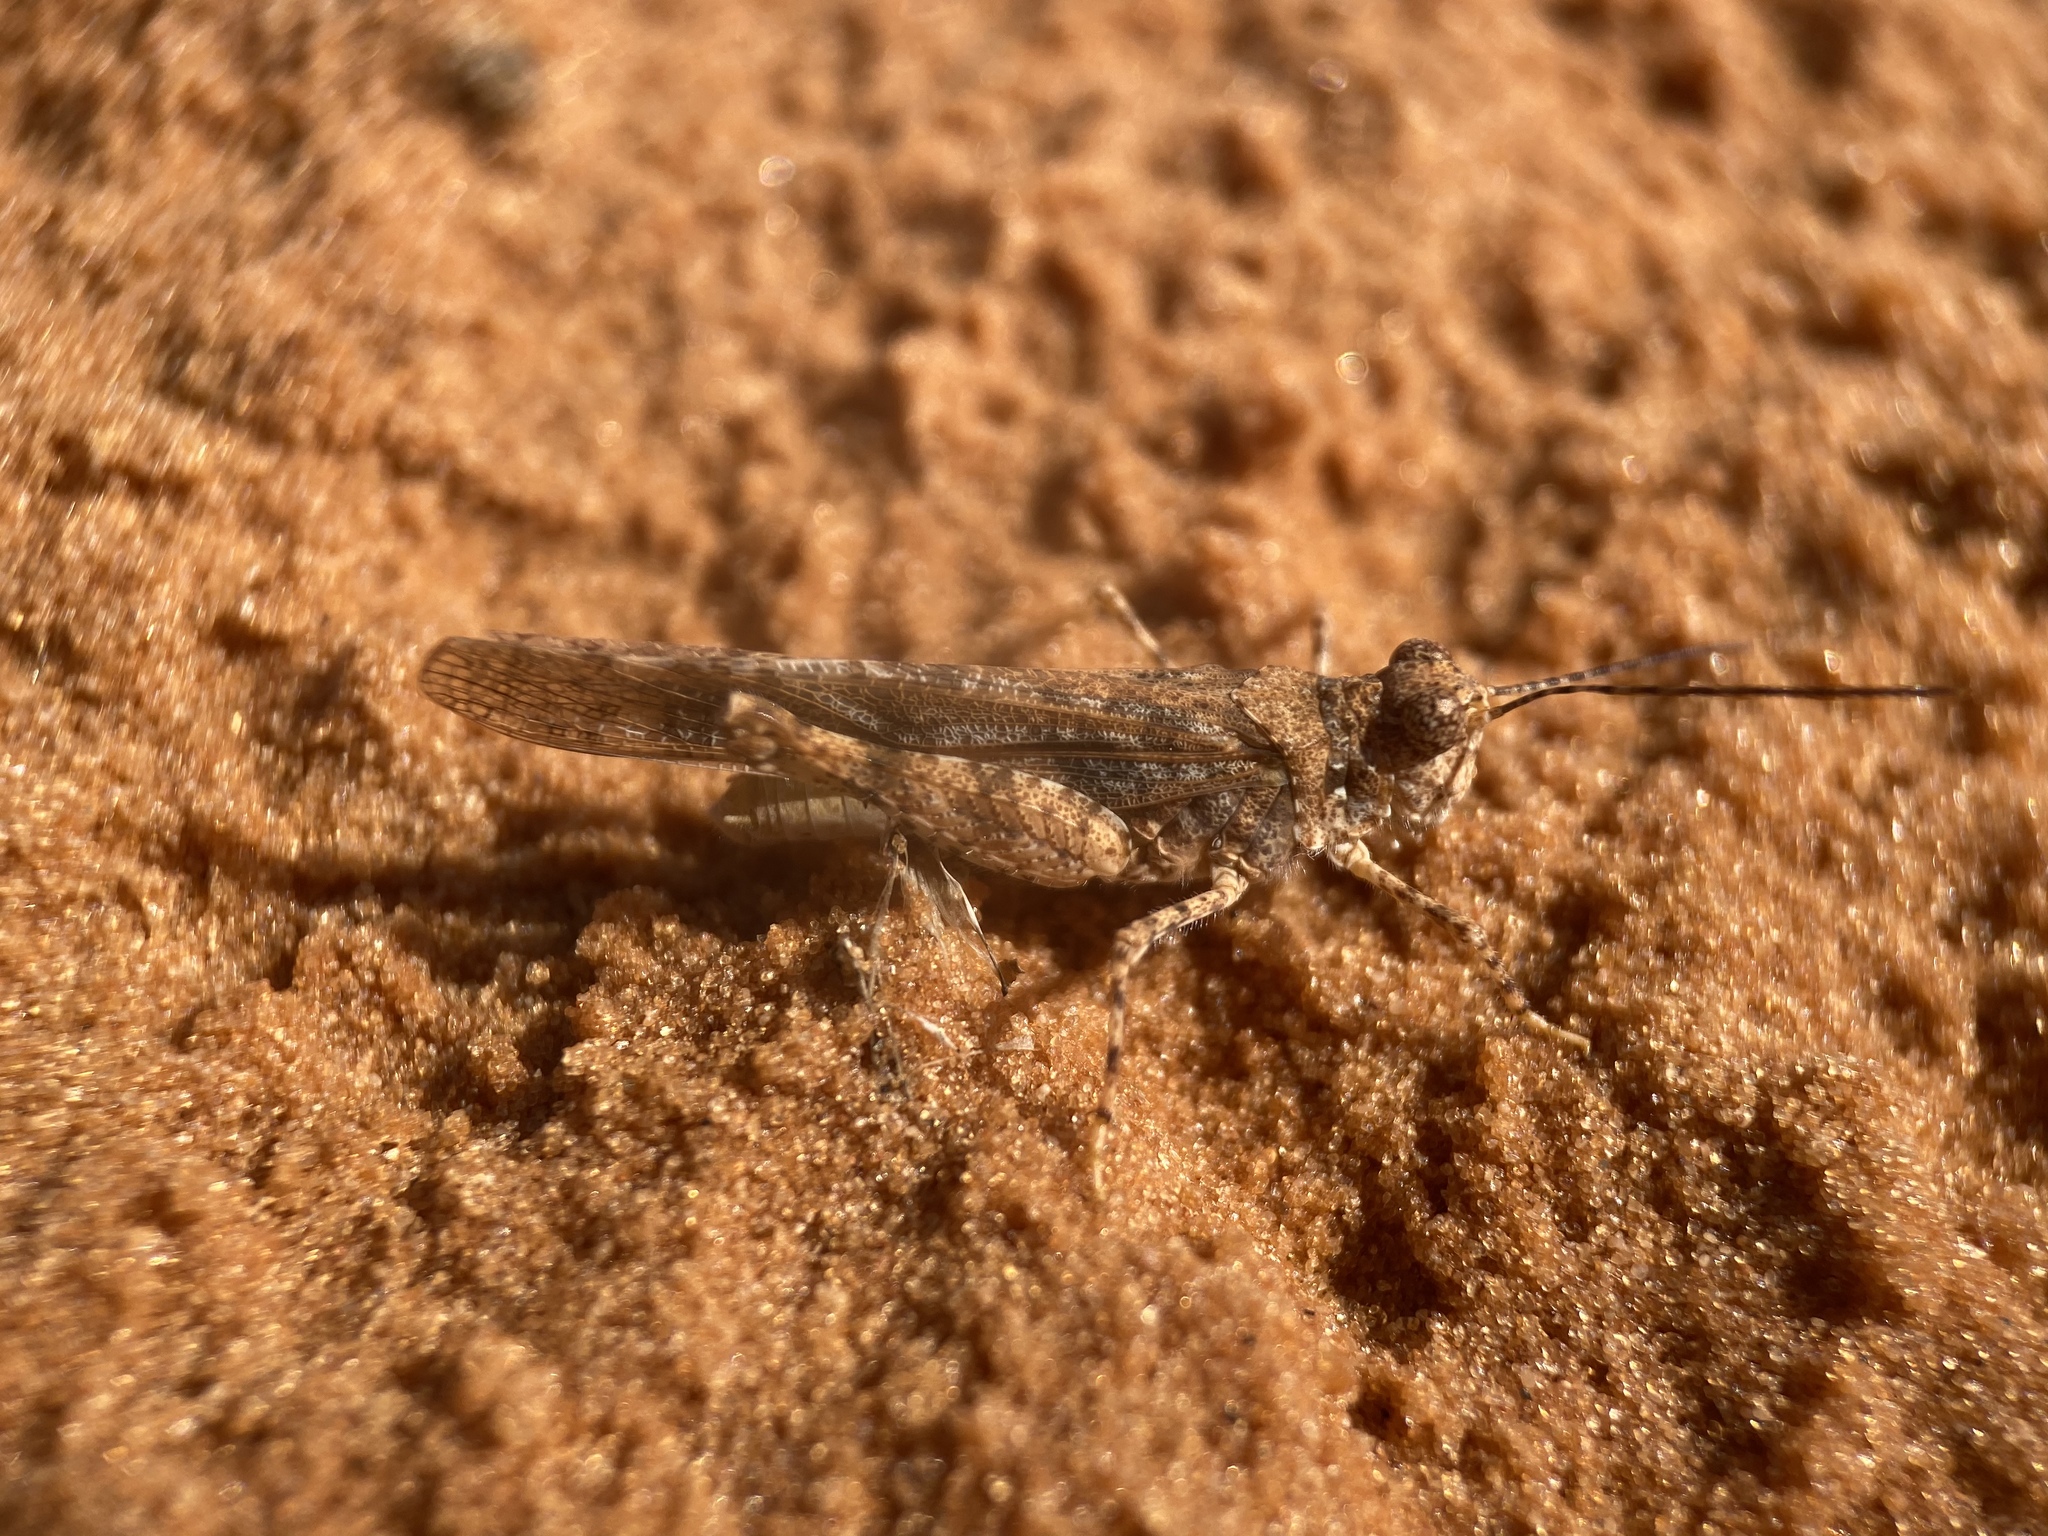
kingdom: Animalia
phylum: Arthropoda
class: Insecta
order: Orthoptera
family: Acrididae
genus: Cibolacris
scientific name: Cibolacris parviceps
